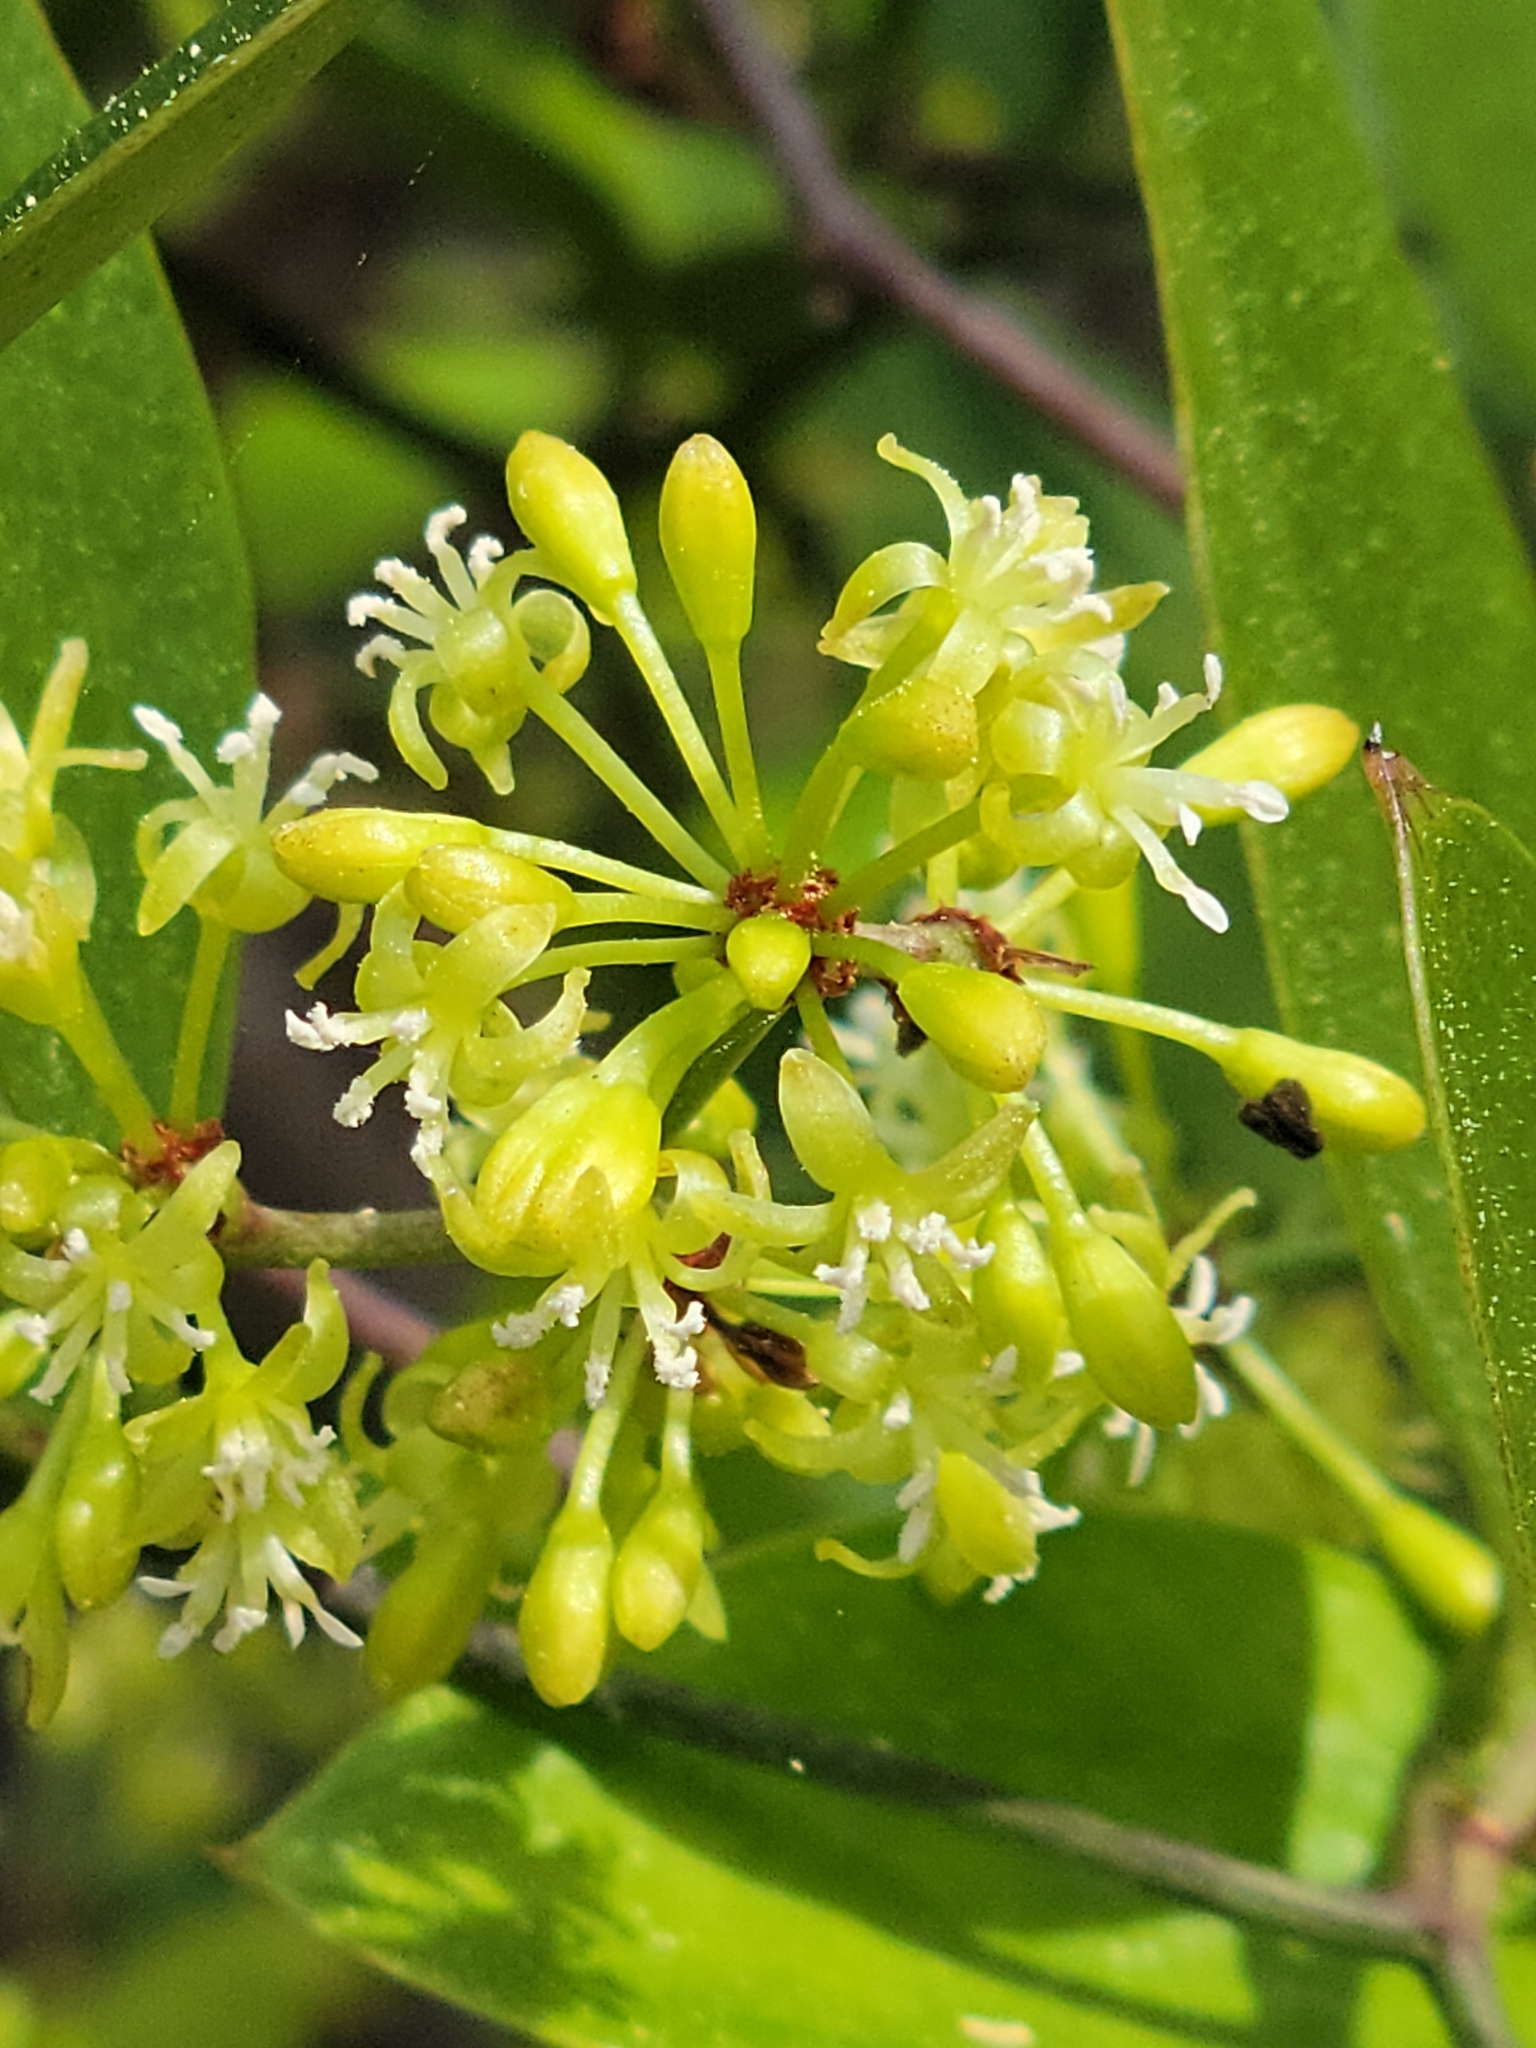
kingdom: Plantae
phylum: Tracheophyta
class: Liliopsida
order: Liliales
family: Smilacaceae
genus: Smilax
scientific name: Smilax auriculata
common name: Wild bamboo
